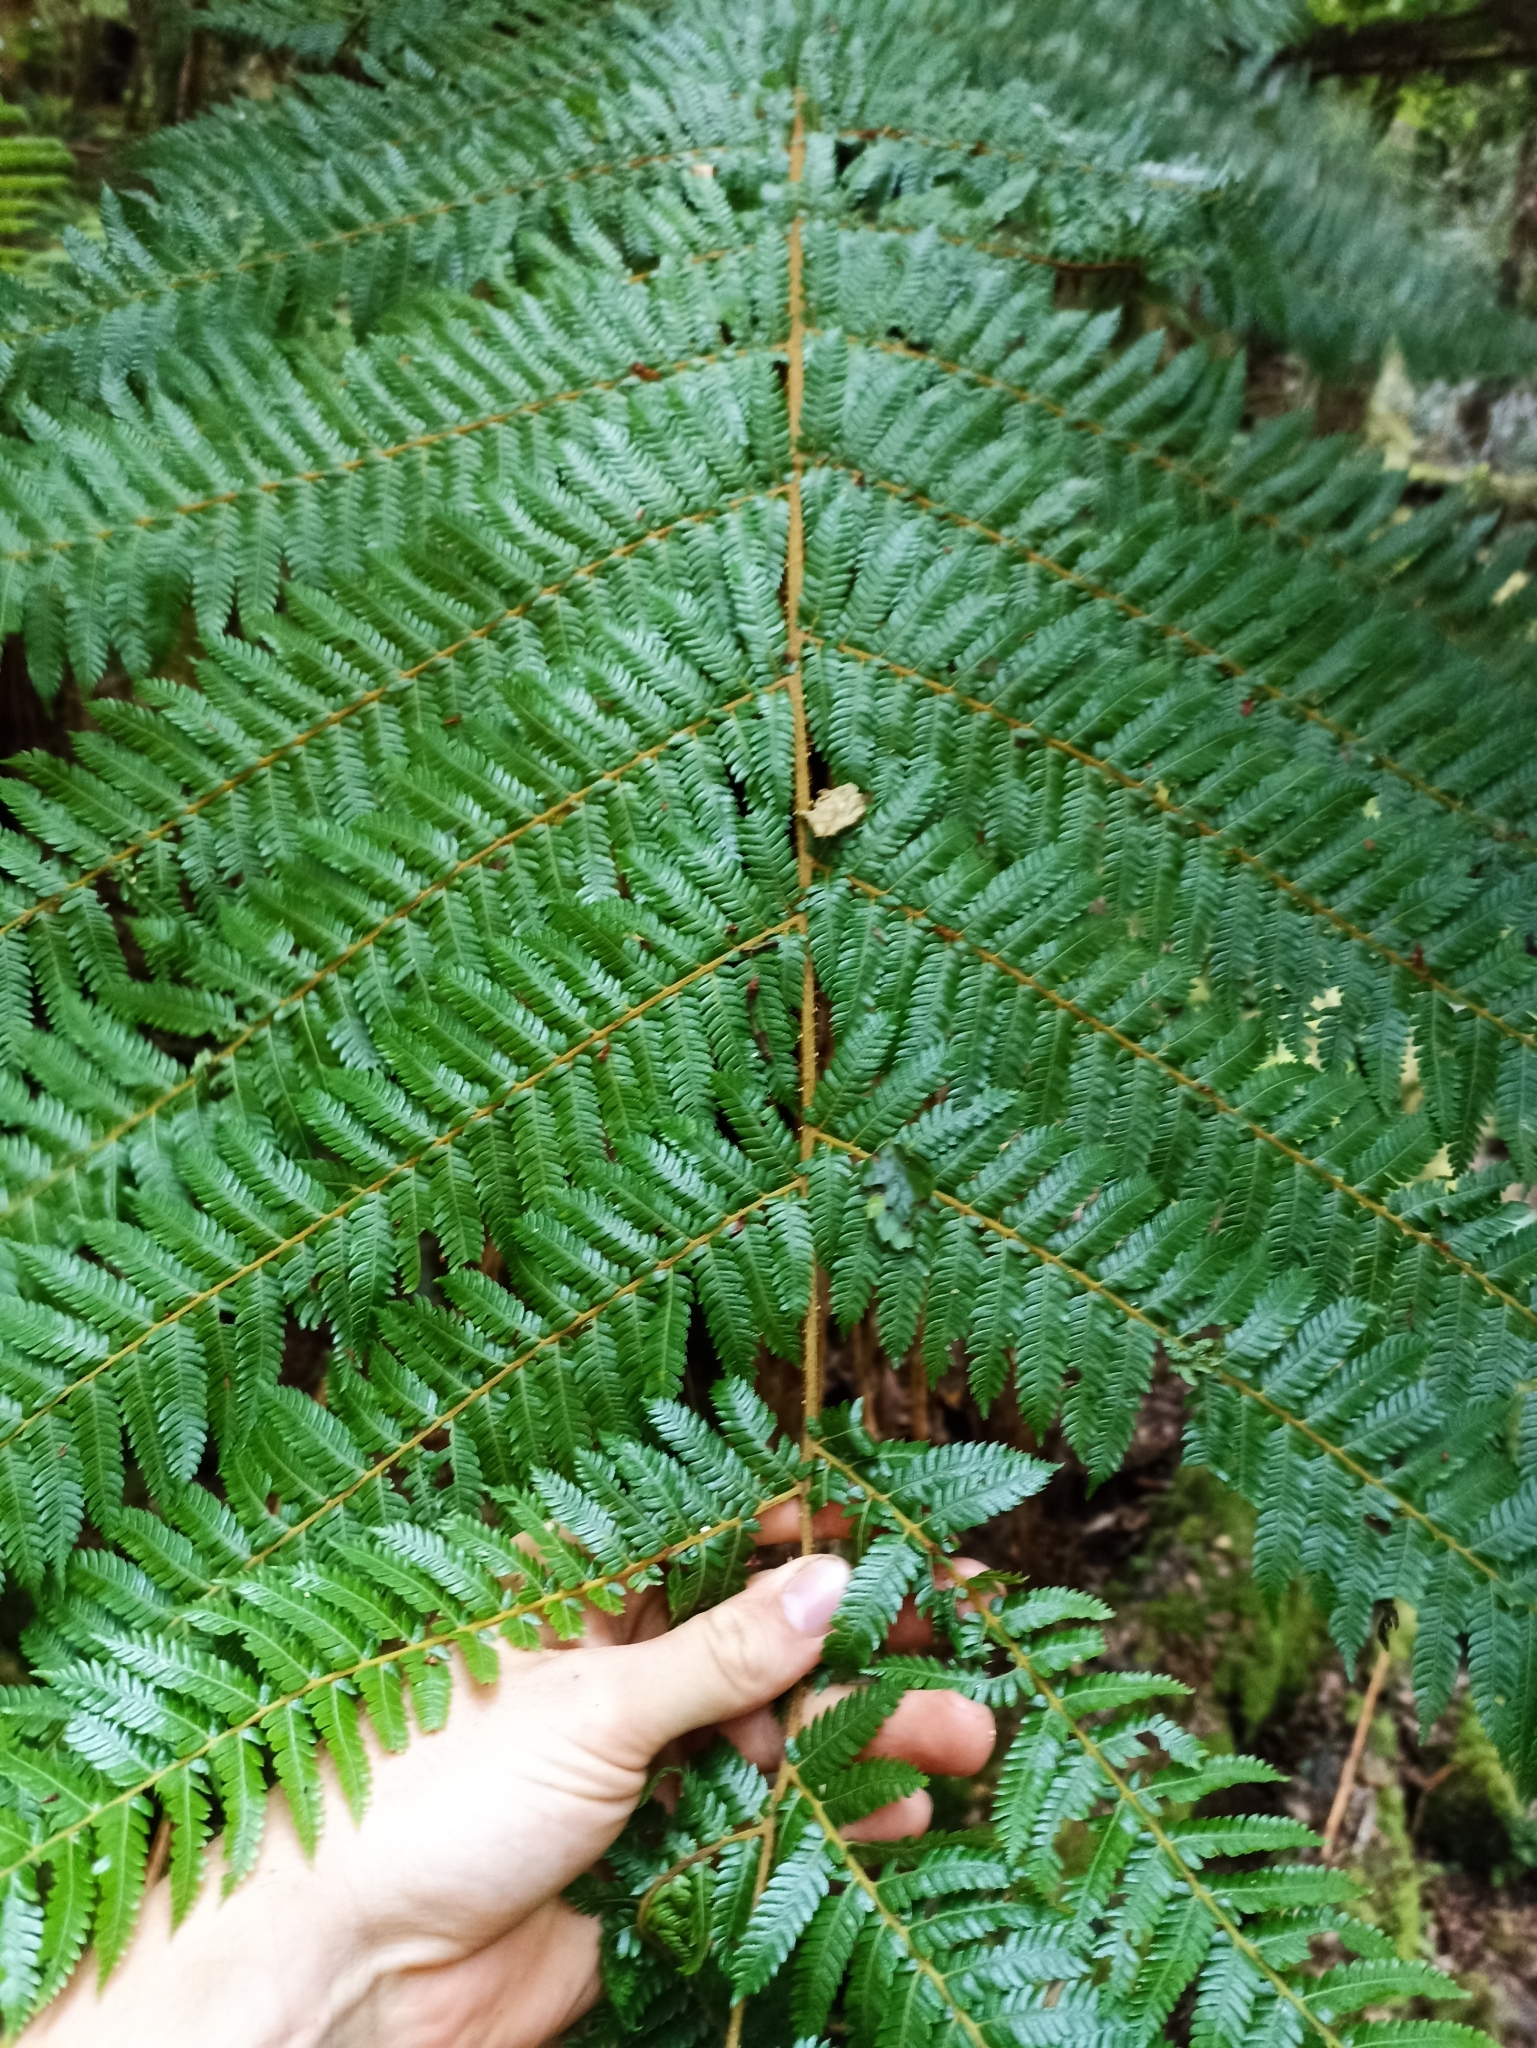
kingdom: Plantae
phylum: Tracheophyta
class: Polypodiopsida
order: Cyatheales
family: Cyatheaceae
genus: Alsophila
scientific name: Alsophila smithii
